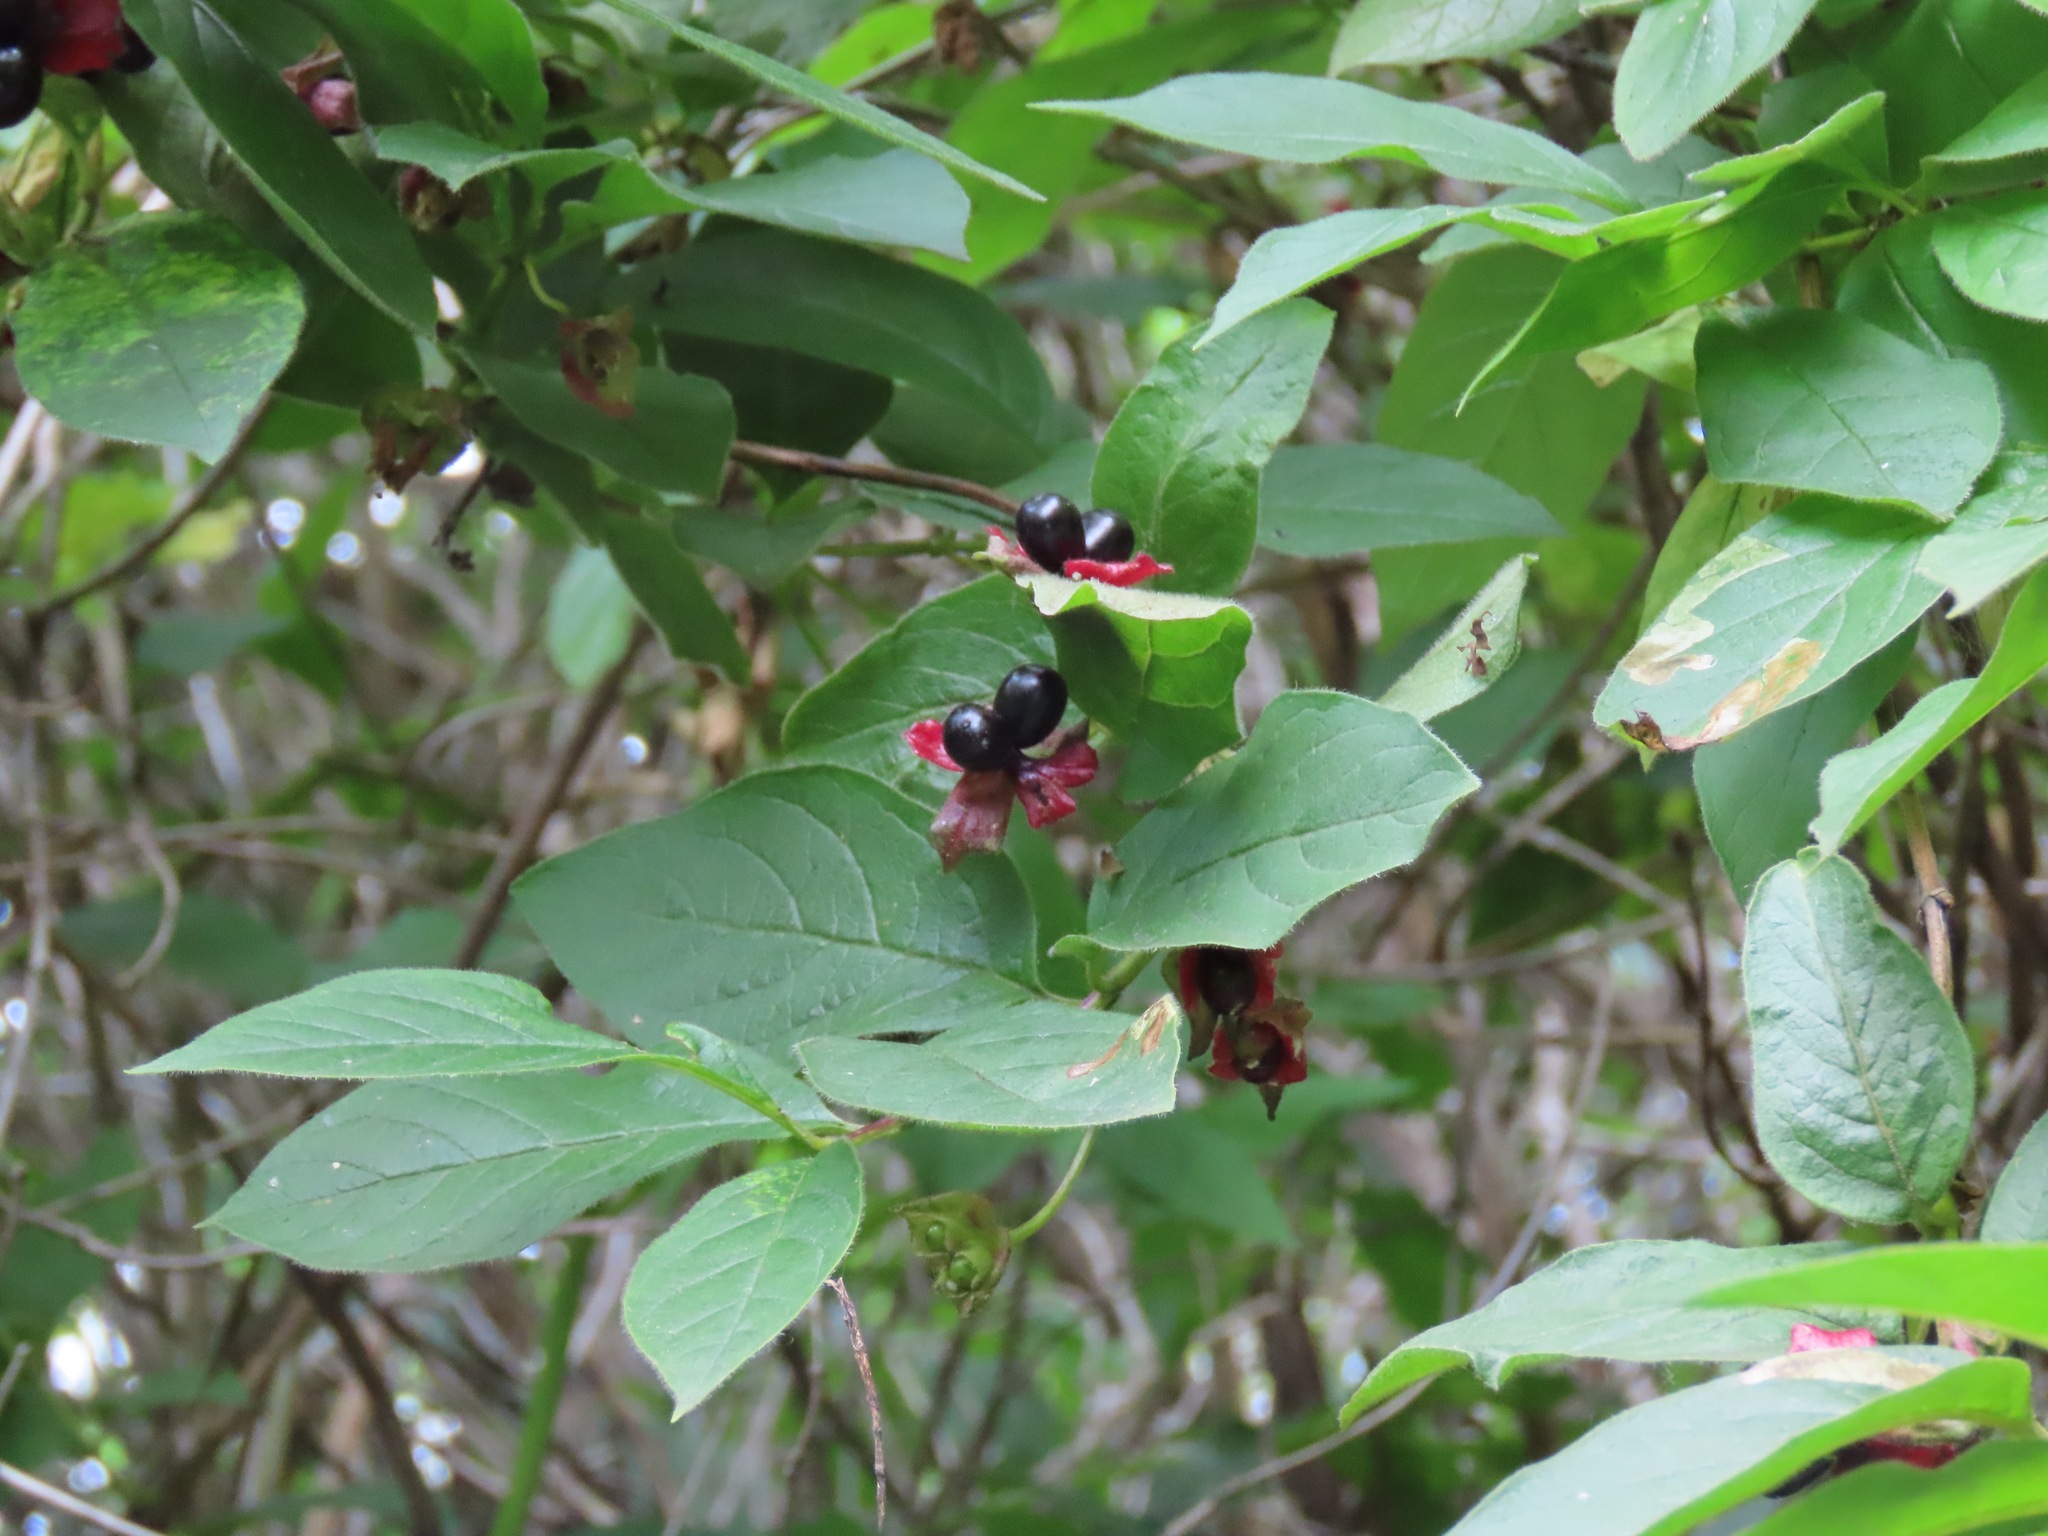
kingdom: Plantae
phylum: Tracheophyta
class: Magnoliopsida
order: Dipsacales
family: Caprifoliaceae
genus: Lonicera
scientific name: Lonicera involucrata
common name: Californian honeysuckle
